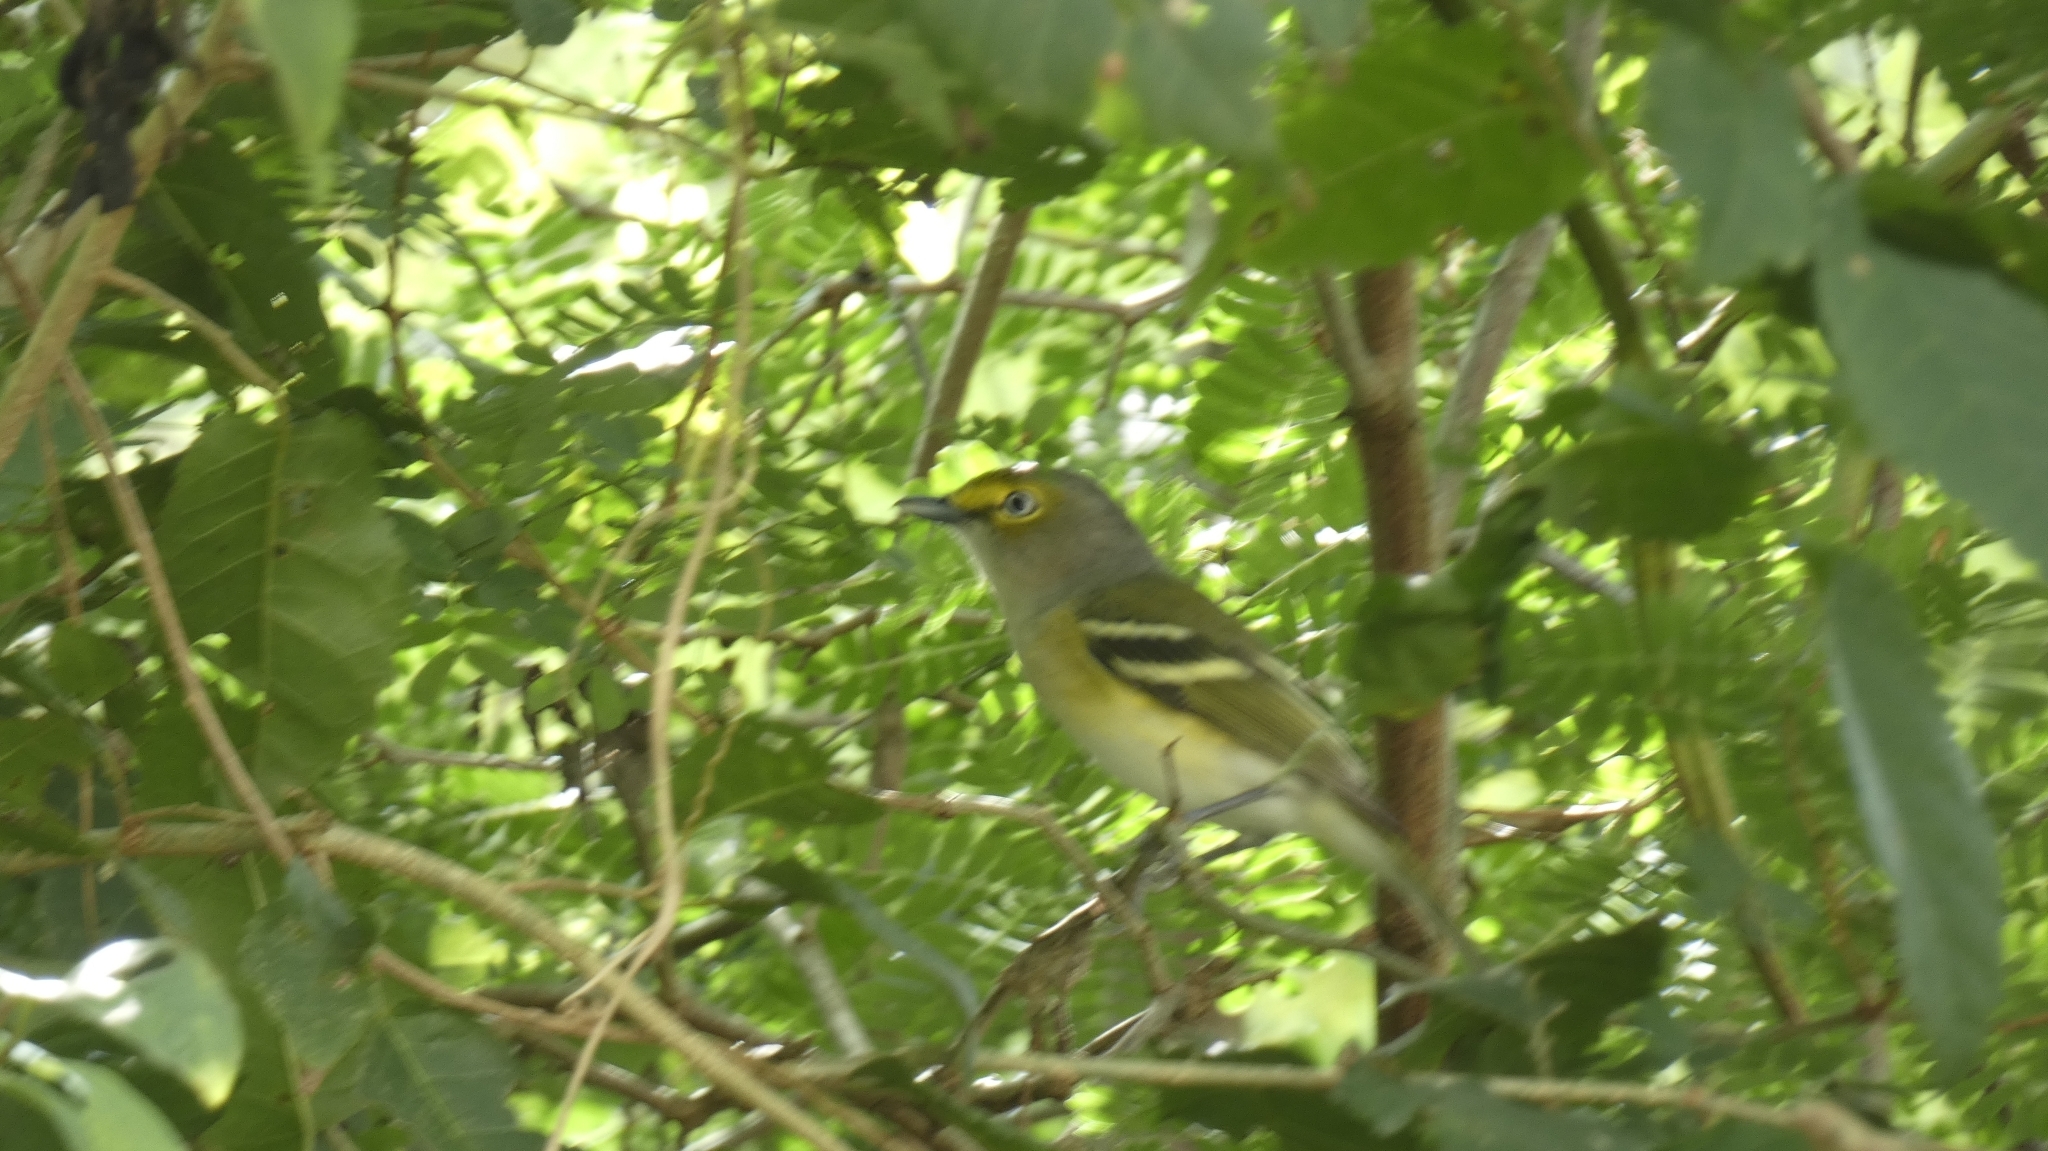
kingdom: Animalia
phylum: Chordata
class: Aves
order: Passeriformes
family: Vireonidae
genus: Vireo
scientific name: Vireo griseus
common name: White-eyed vireo
